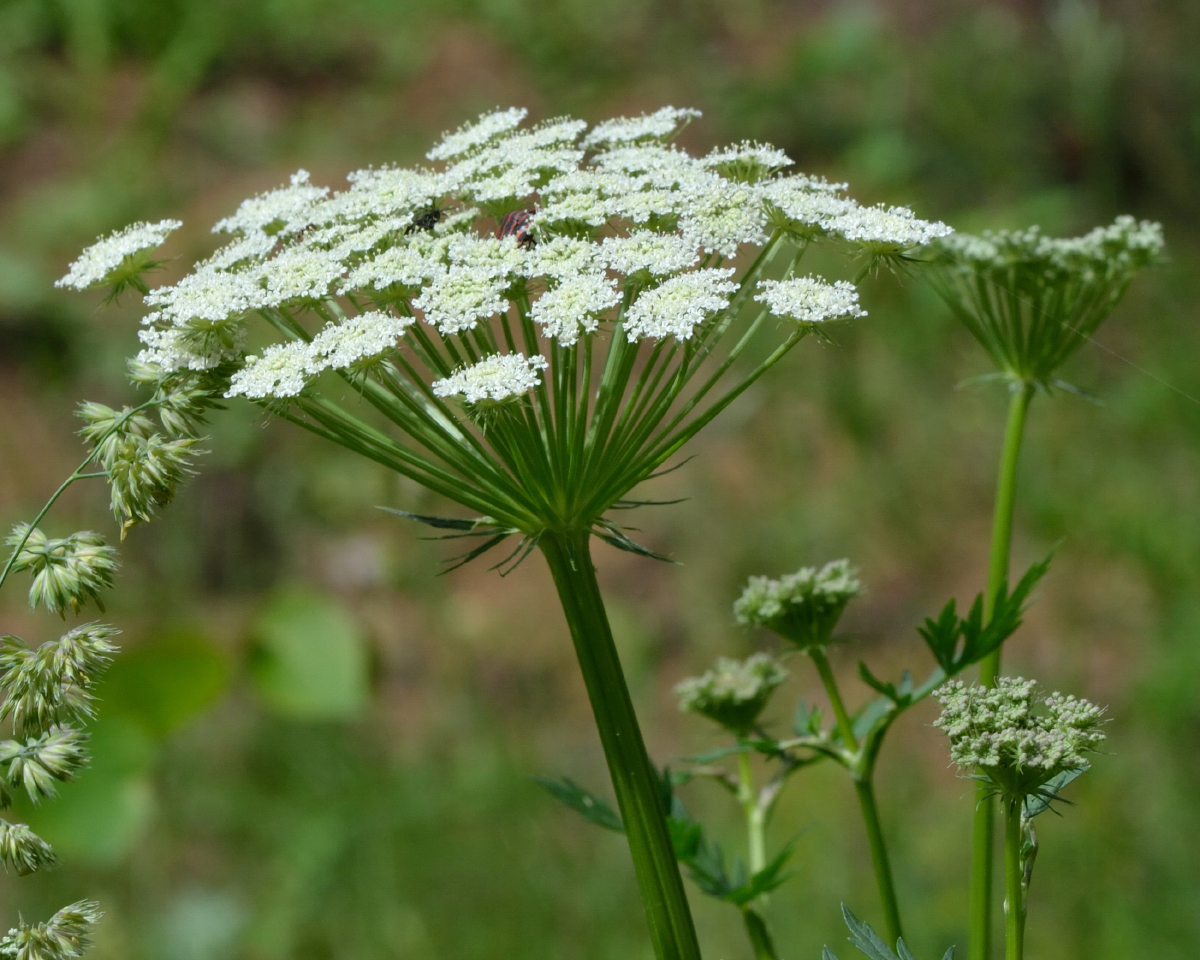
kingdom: Plantae
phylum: Tracheophyta
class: Magnoliopsida
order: Apiales
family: Apiaceae
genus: Seseli
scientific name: Seseli libanotis
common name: Mooncarrot
